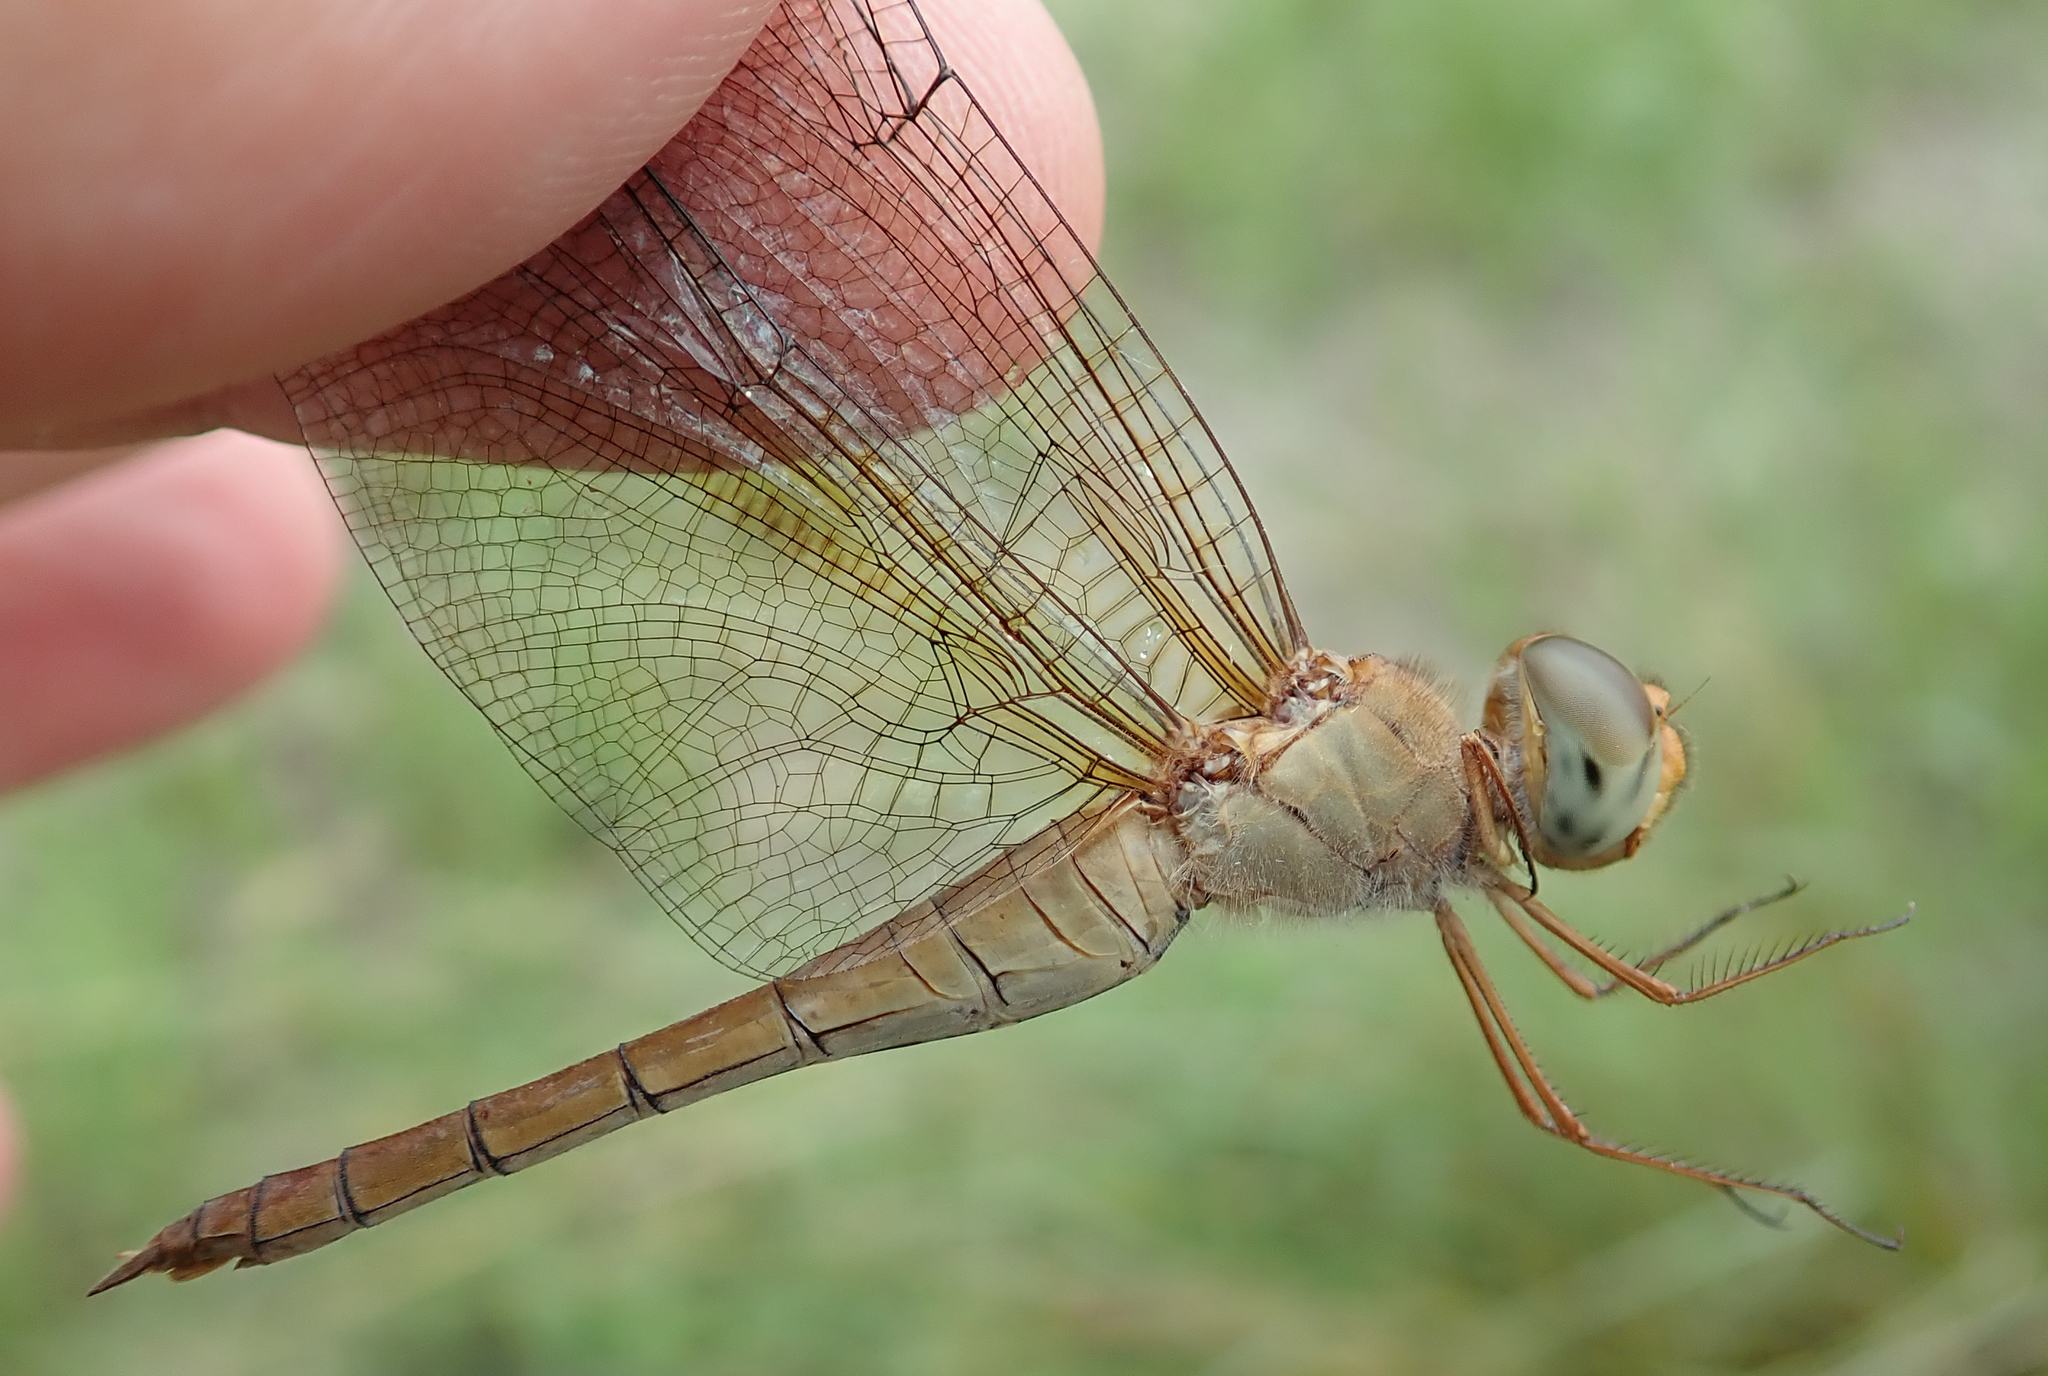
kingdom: Animalia
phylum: Arthropoda
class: Insecta
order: Odonata
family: Libellulidae
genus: Tholymis
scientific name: Tholymis tillarga
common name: Coral-tailed cloud wing
